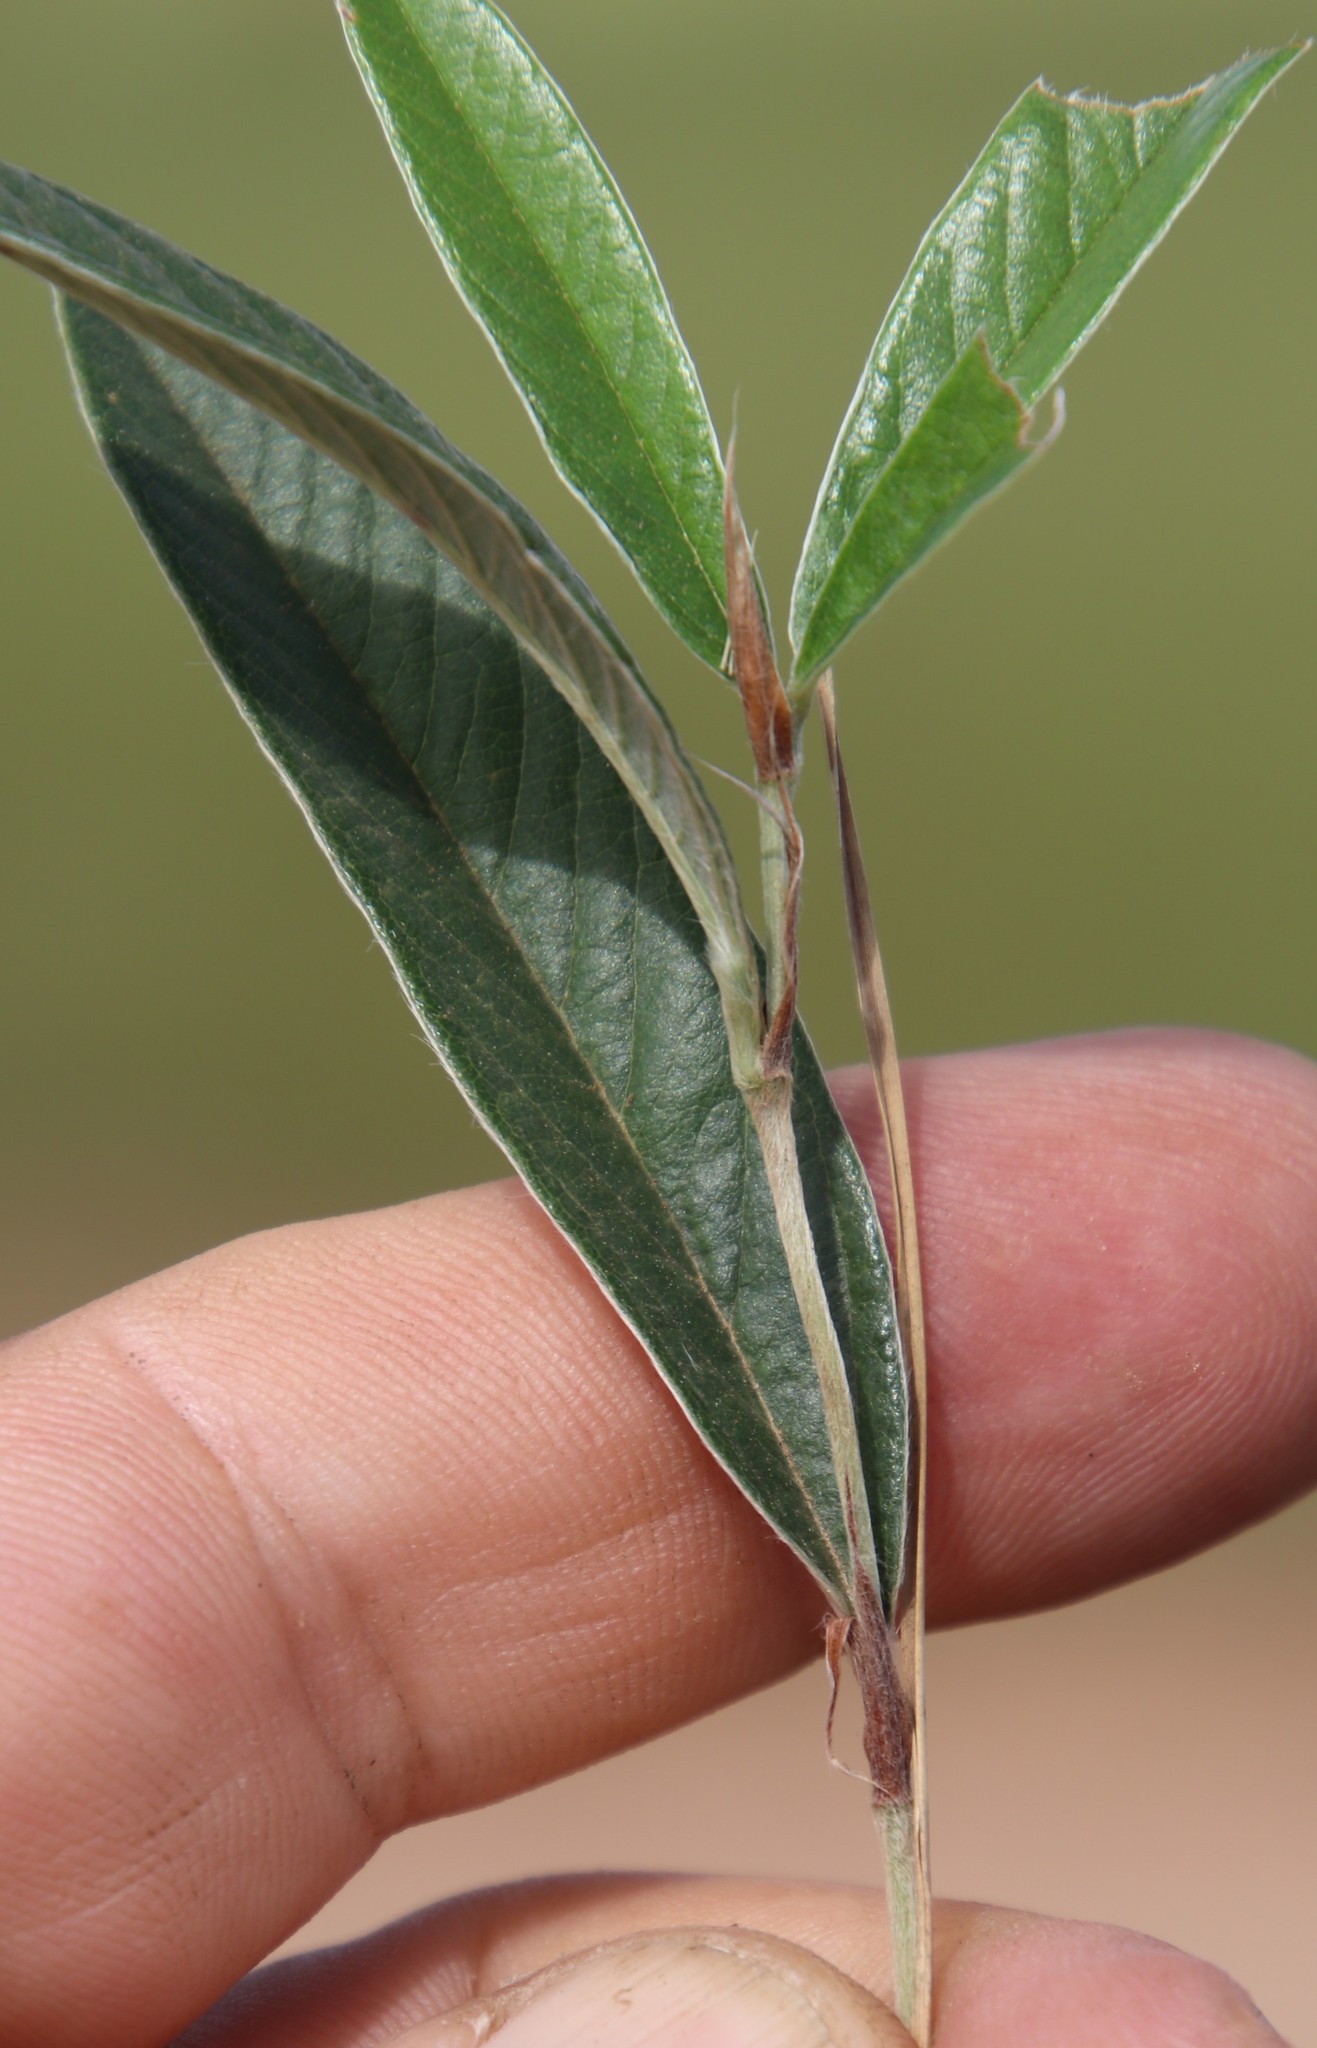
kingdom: Plantae
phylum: Tracheophyta
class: Magnoliopsida
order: Fabales
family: Fabaceae
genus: Eriosema
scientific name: Eriosema salignum
